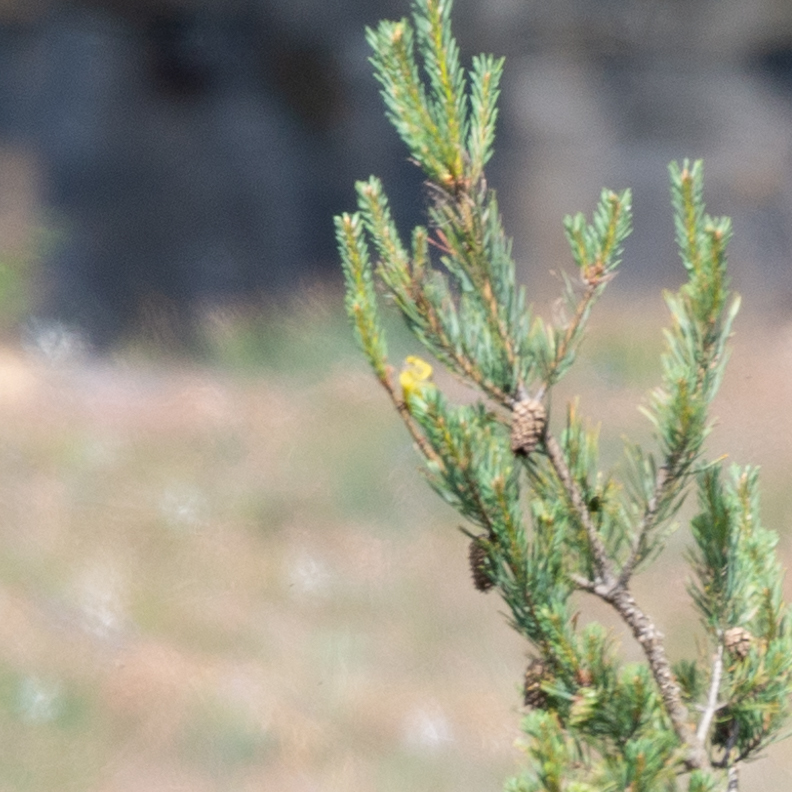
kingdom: Animalia
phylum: Chordata
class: Aves
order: Passeriformes
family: Fringillidae
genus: Serinus
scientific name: Serinus serinus
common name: European serin
